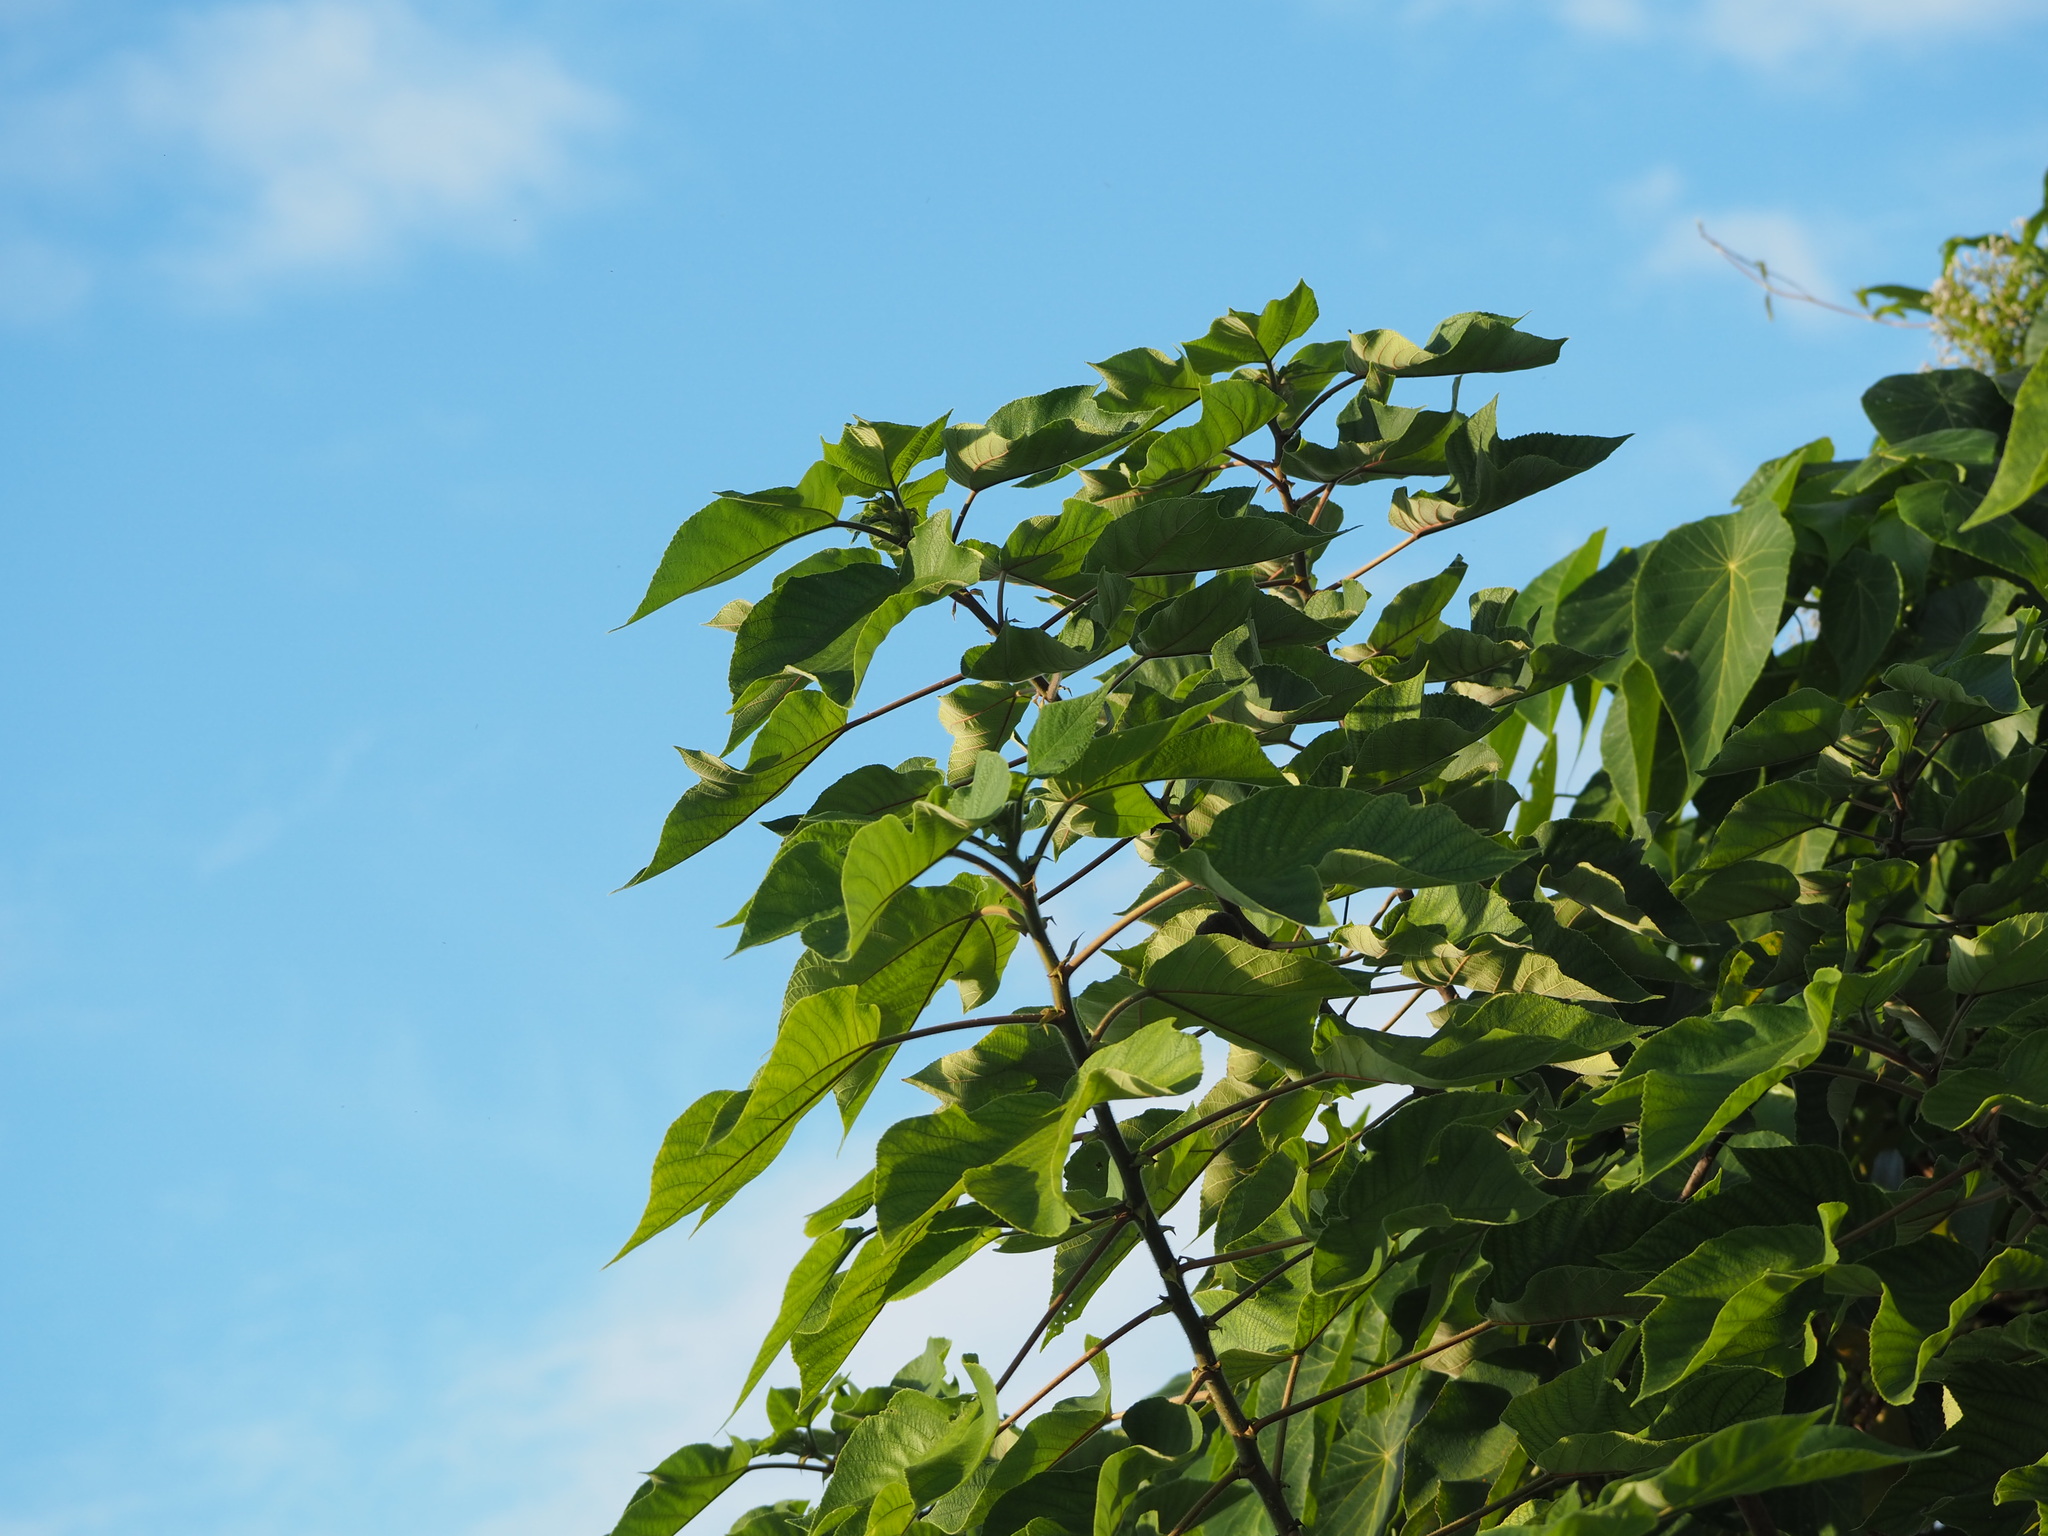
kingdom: Plantae
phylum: Tracheophyta
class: Magnoliopsida
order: Rosales
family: Moraceae
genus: Broussonetia
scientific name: Broussonetia papyrifera
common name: Paper mulberry
